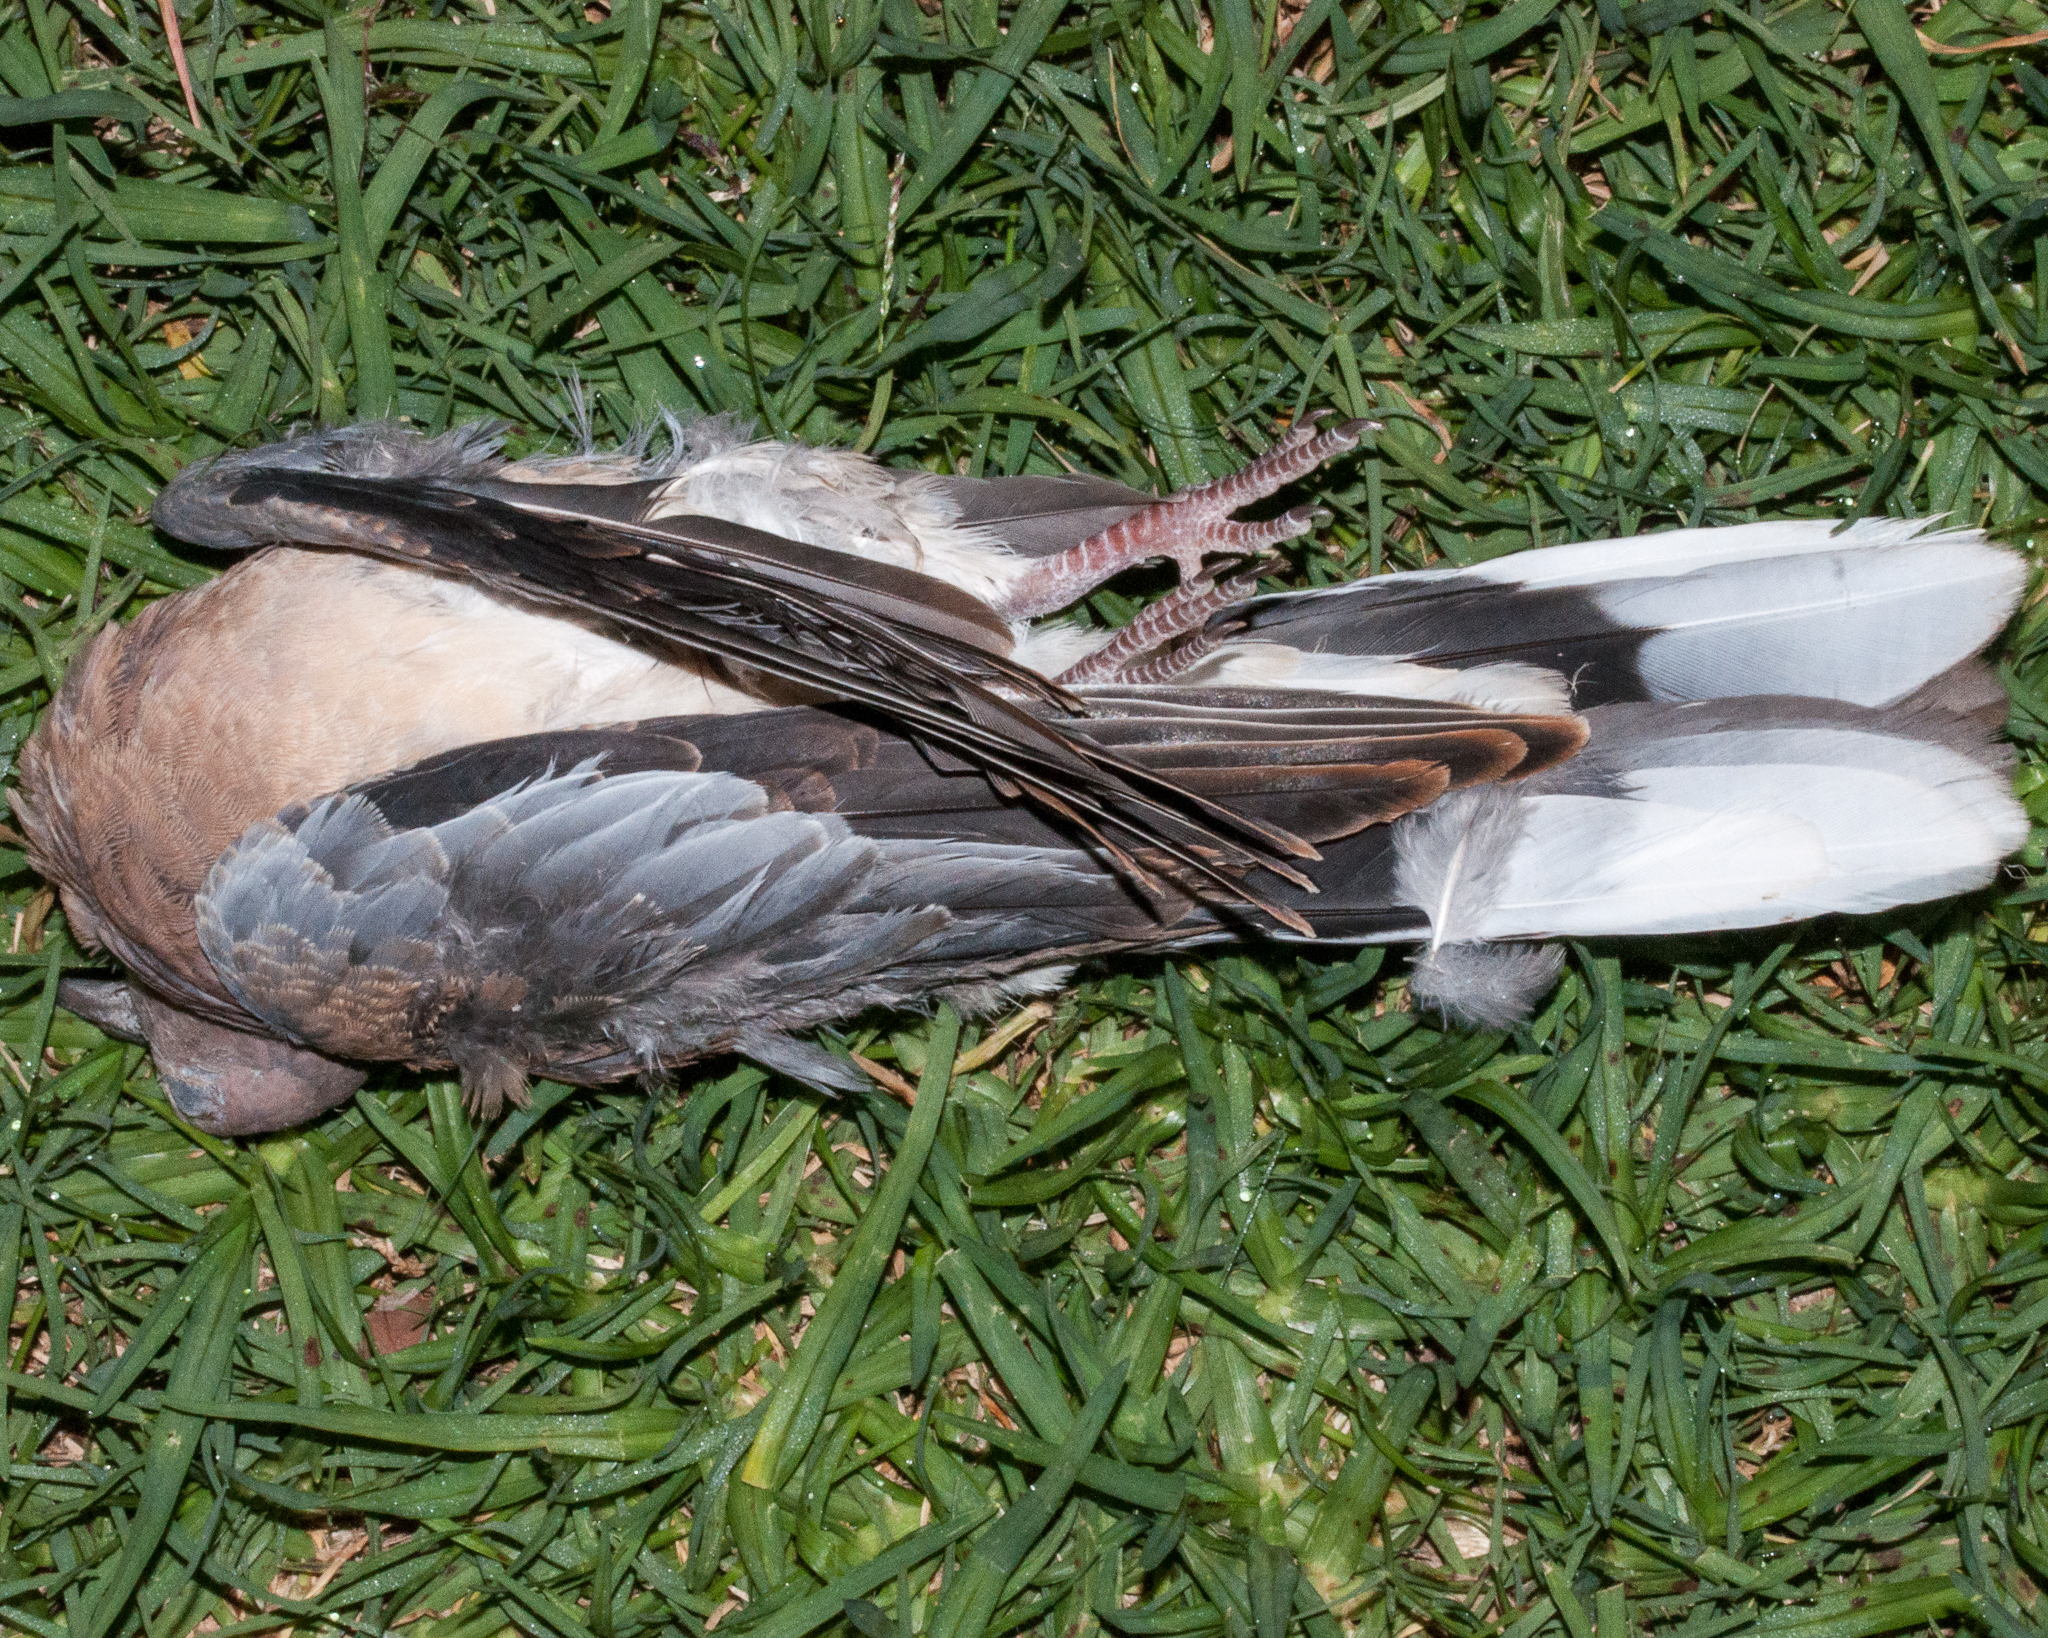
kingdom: Animalia
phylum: Chordata
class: Aves
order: Columbiformes
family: Columbidae
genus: Spilopelia
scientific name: Spilopelia senegalensis
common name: Laughing dove
